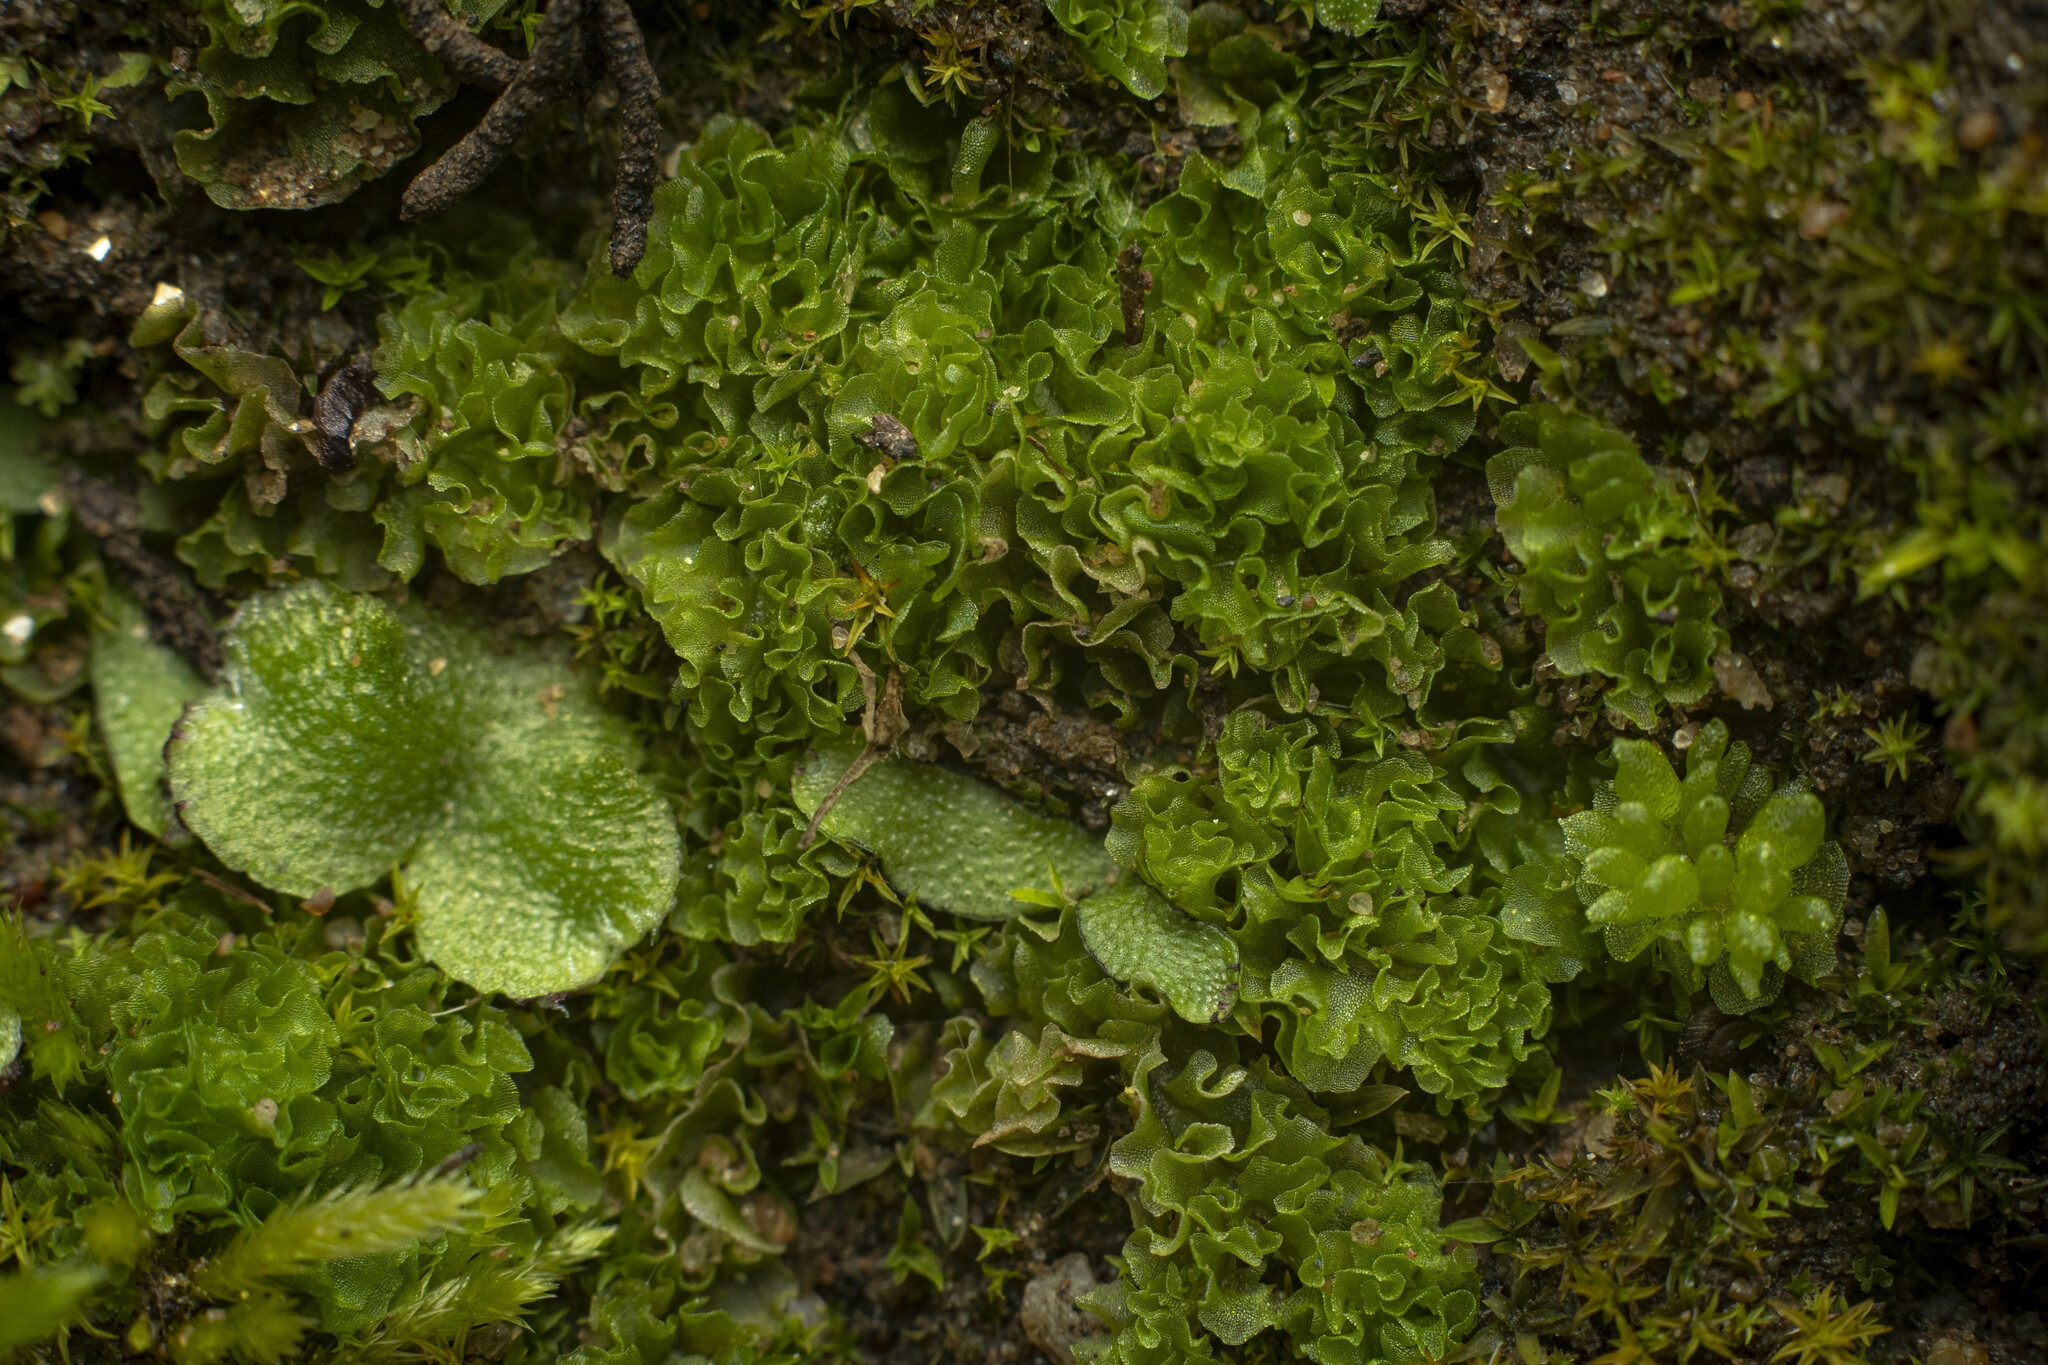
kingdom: Plantae
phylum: Marchantiophyta
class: Jungermanniopsida
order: Fossombroniales
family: Fossombroniaceae
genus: Fossombronia
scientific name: Fossombronia
